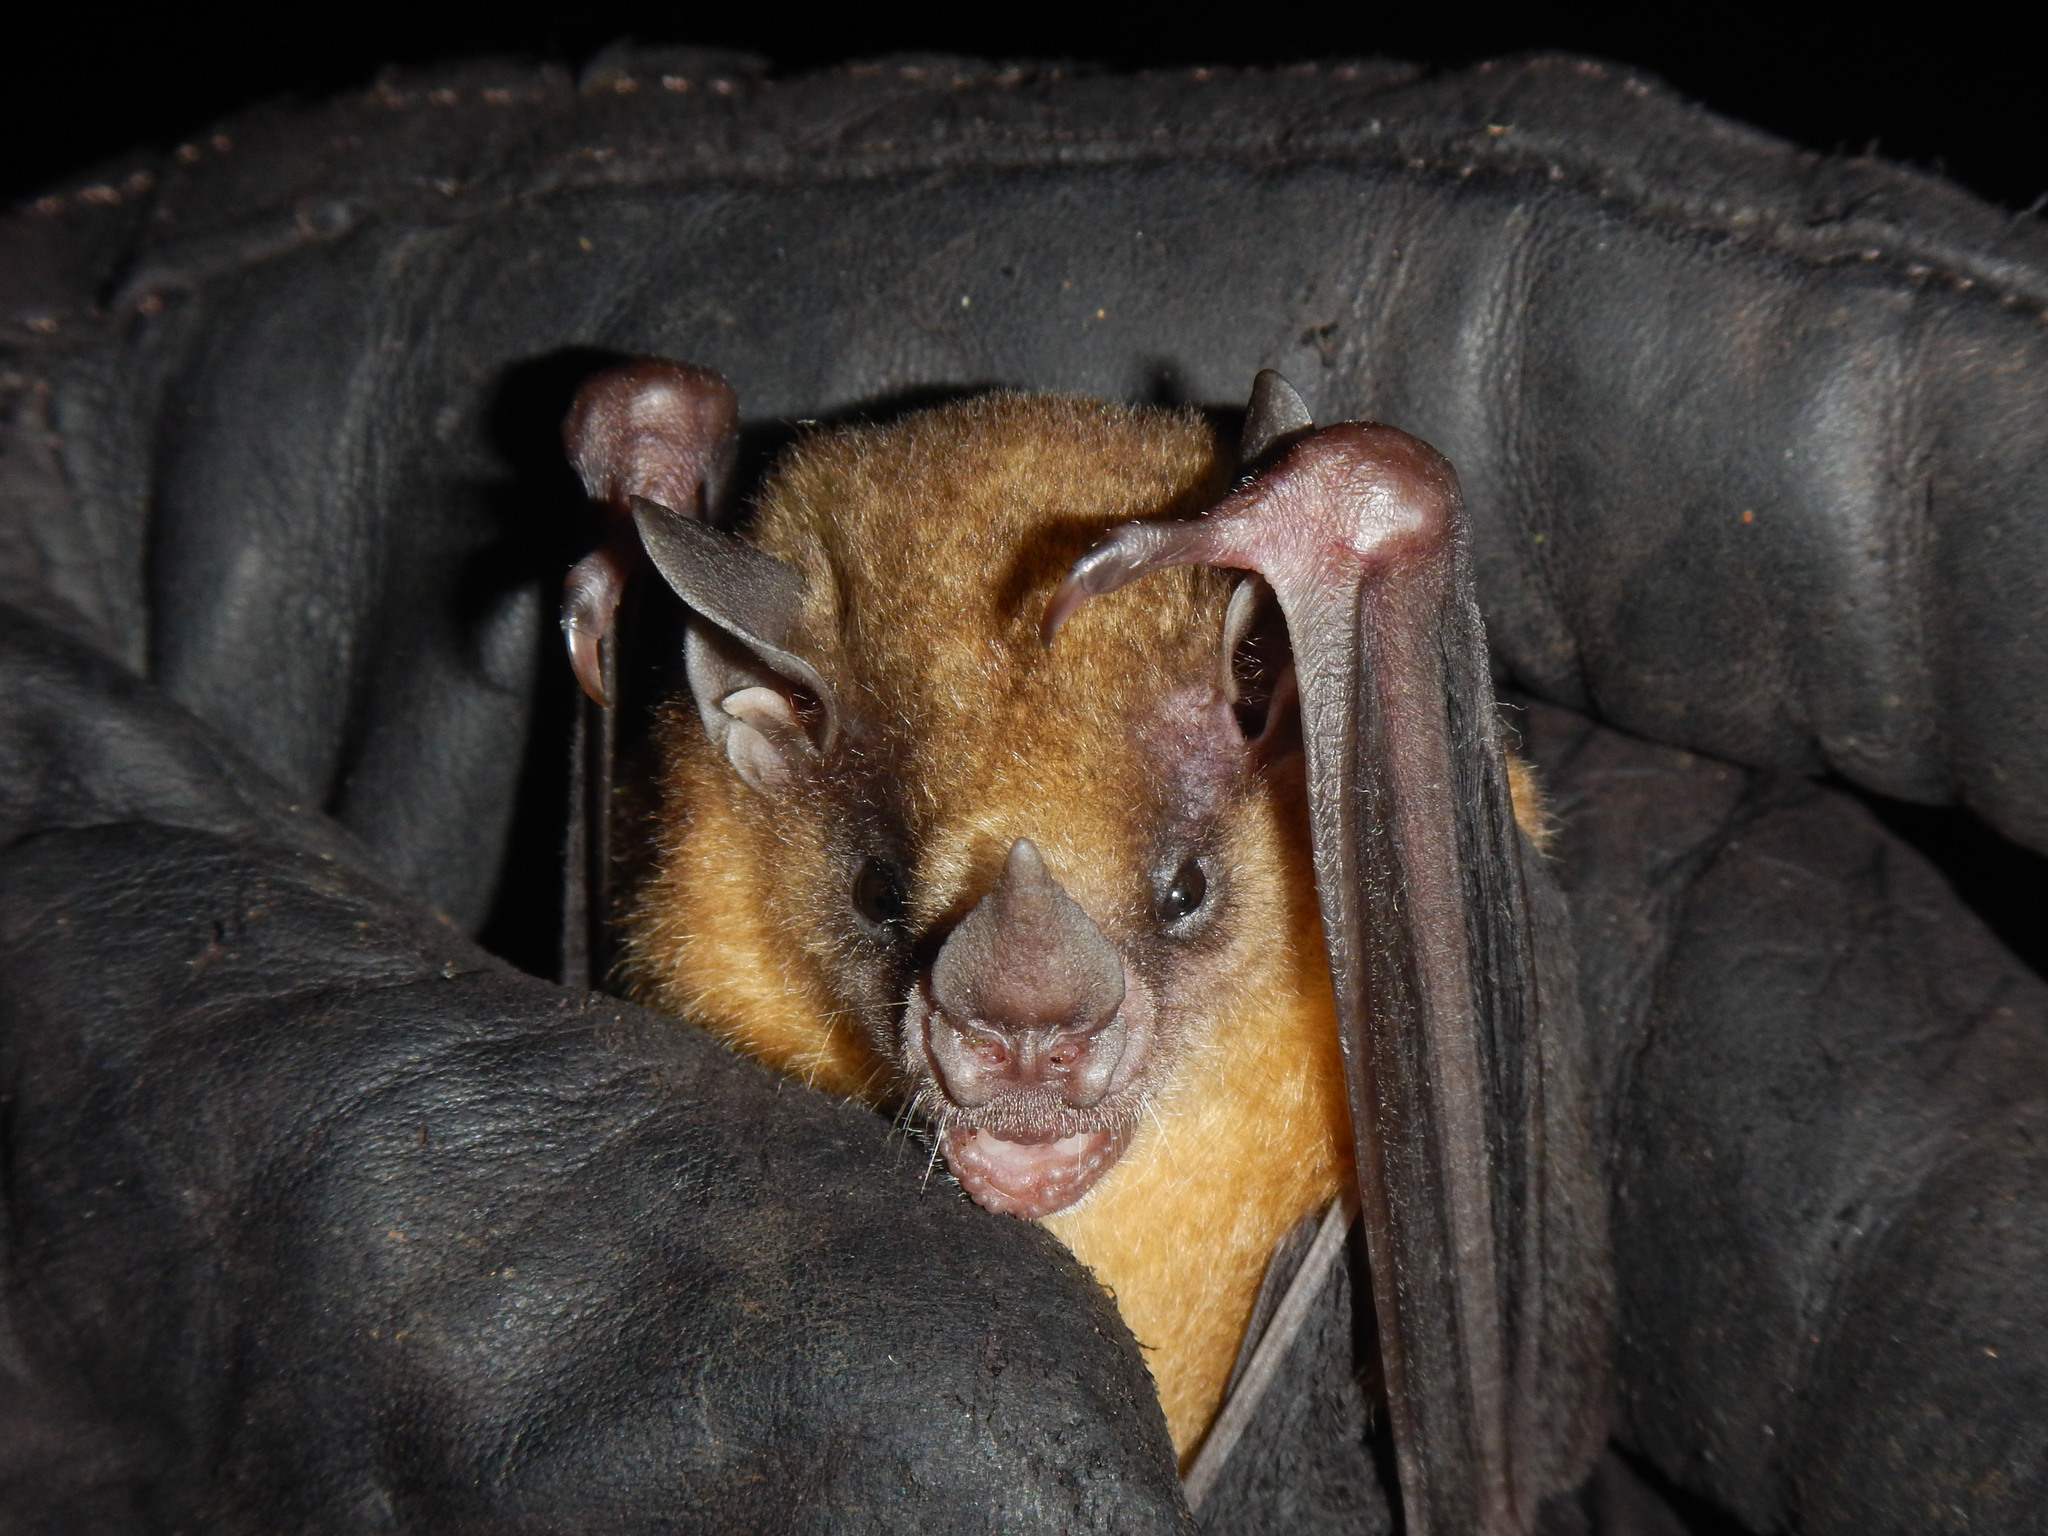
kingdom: Animalia
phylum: Chordata
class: Mammalia
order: Chiroptera
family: Phyllostomidae
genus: Sturnira
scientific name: Sturnira tildae
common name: Tilda's yellow-shouldered bat
